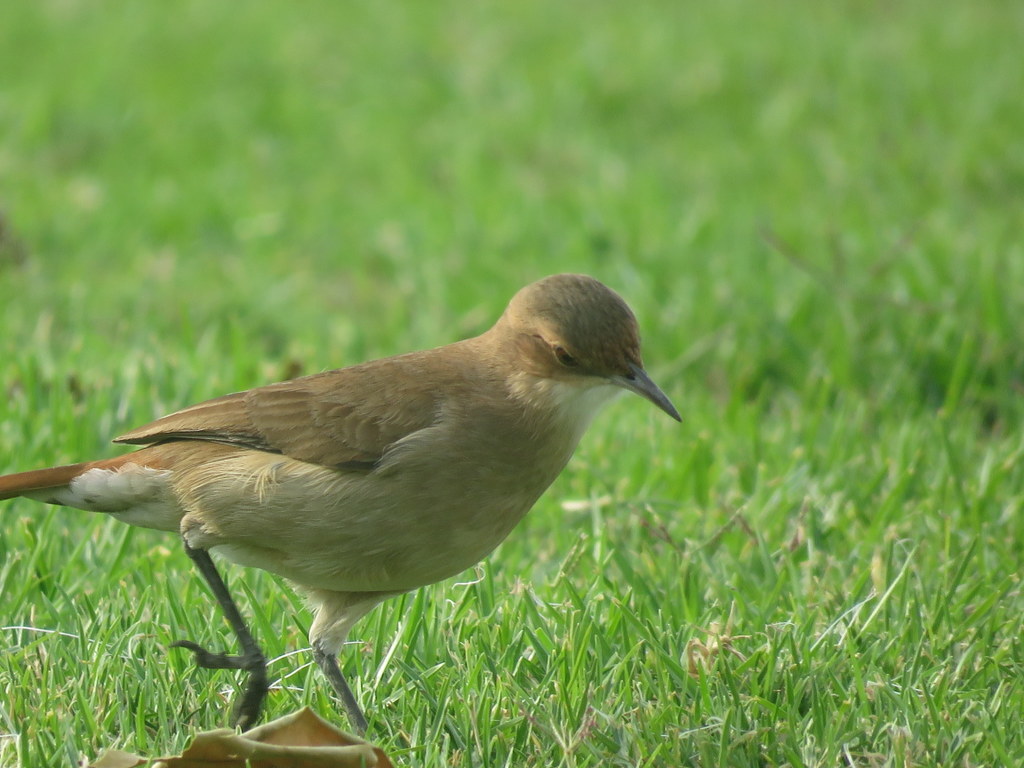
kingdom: Animalia
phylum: Chordata
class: Aves
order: Passeriformes
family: Furnariidae
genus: Furnarius
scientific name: Furnarius rufus
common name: Rufous hornero
